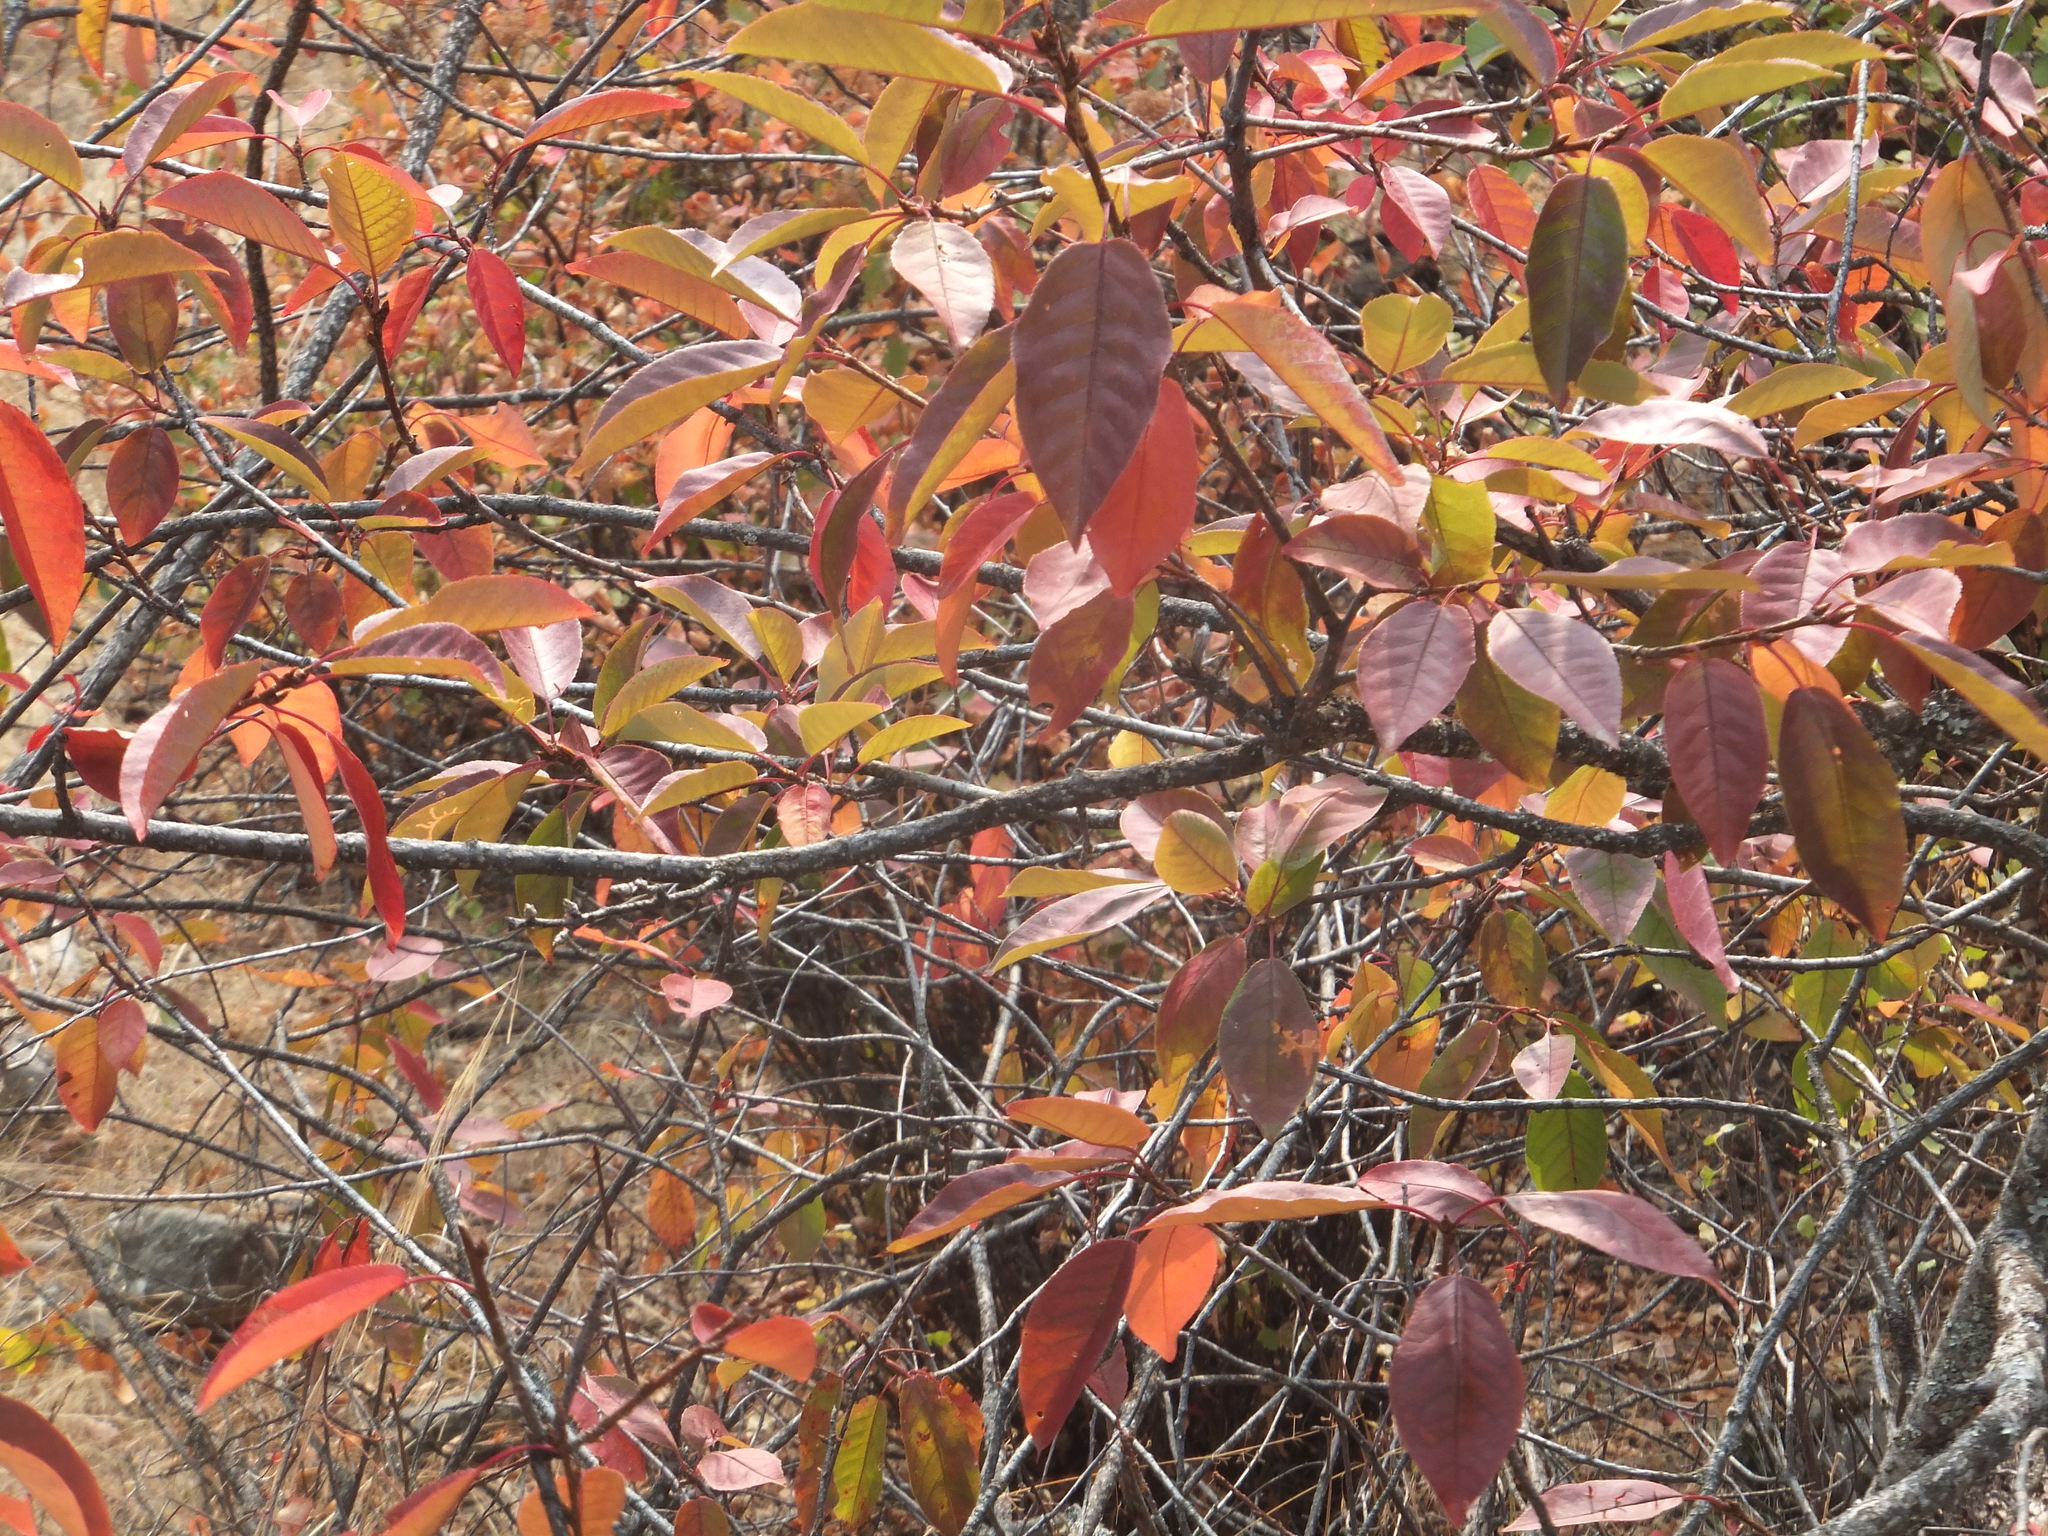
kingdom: Plantae
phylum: Tracheophyta
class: Magnoliopsida
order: Rosales
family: Rosaceae
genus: Prunus
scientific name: Prunus virginiana
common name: Chokecherry
